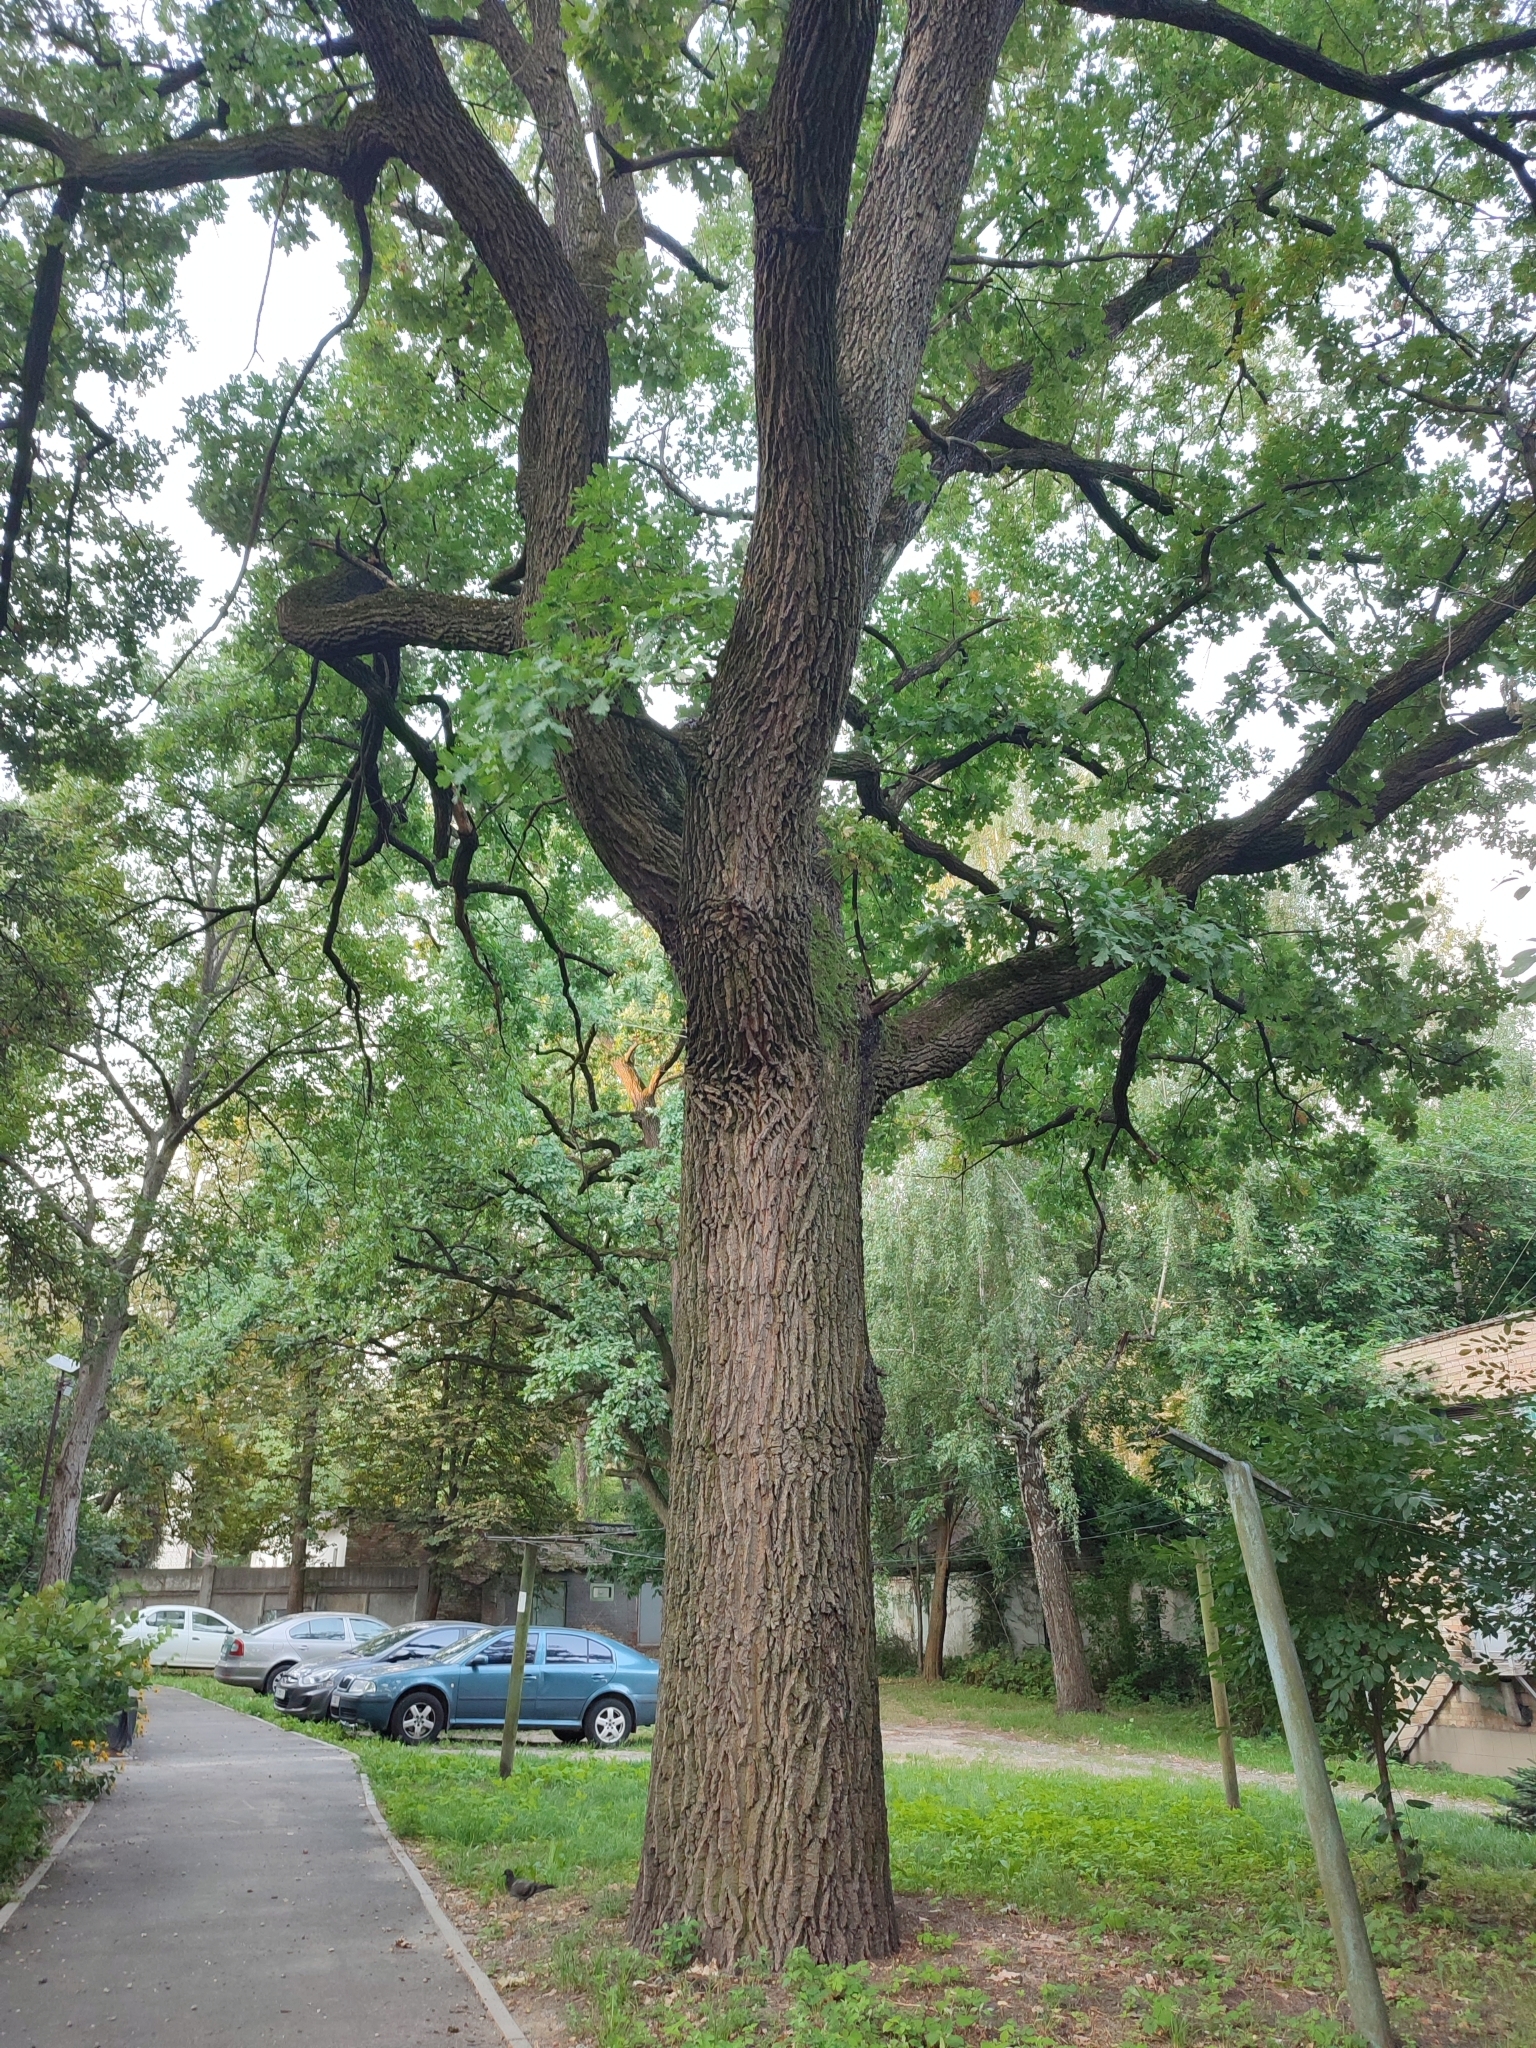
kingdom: Plantae
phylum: Tracheophyta
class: Magnoliopsida
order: Fagales
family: Fagaceae
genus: Quercus
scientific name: Quercus robur
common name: Pedunculate oak
